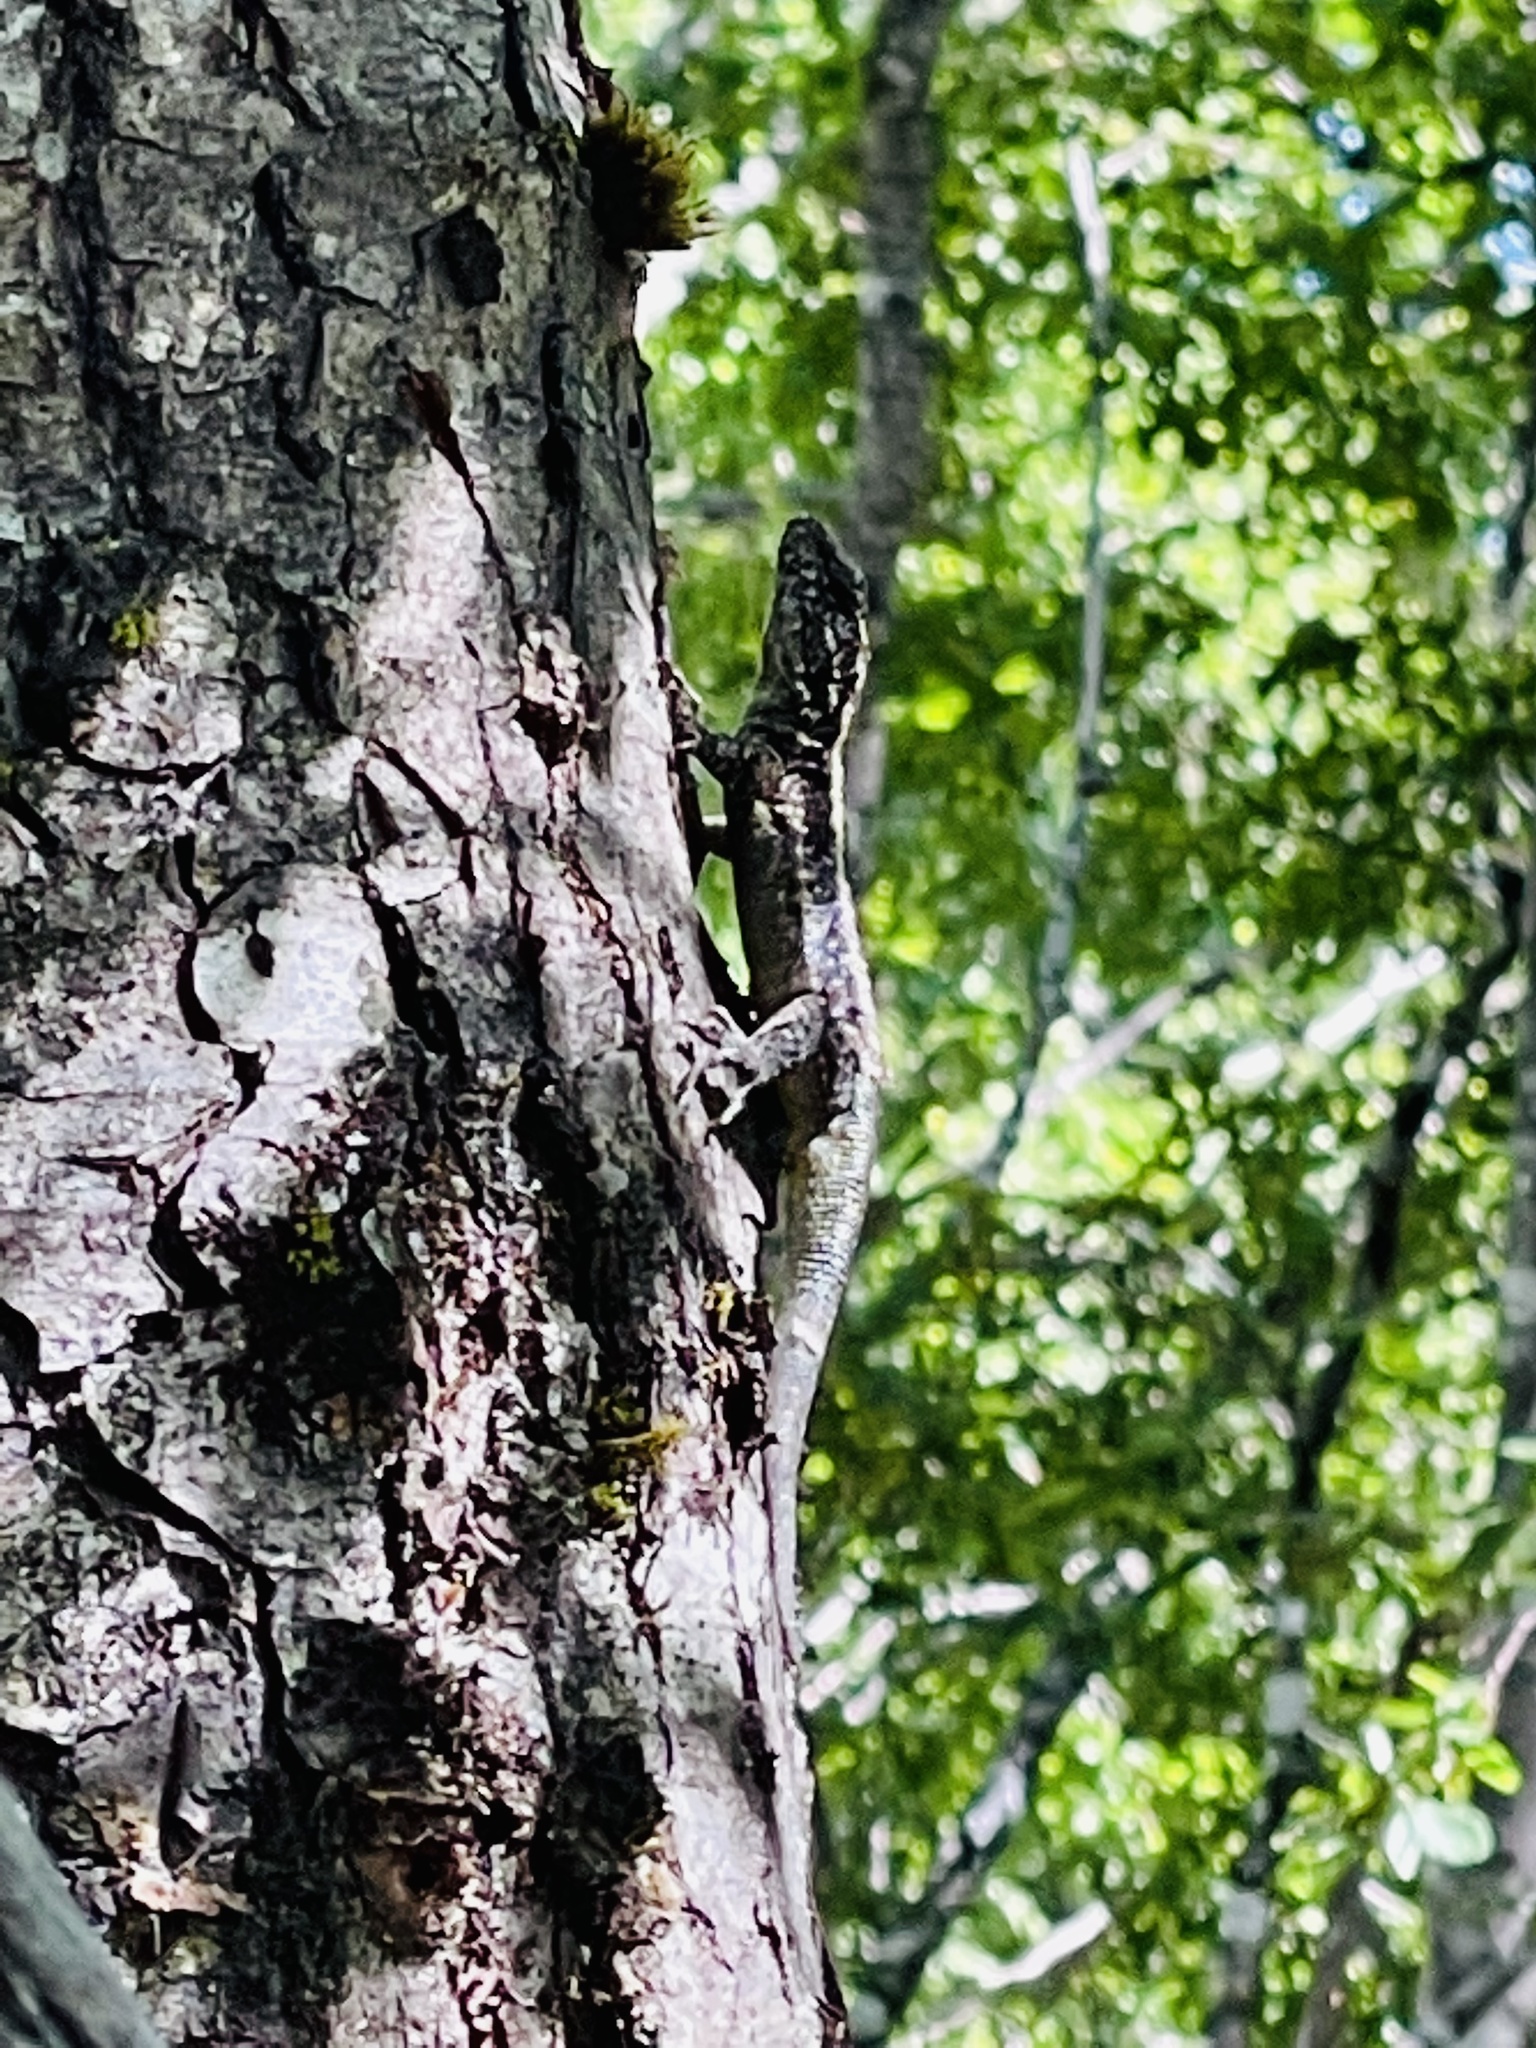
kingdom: Animalia
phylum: Chordata
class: Squamata
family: Liolaemidae
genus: Liolaemus
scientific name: Liolaemus septentrionalis
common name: Painted tree iguana
